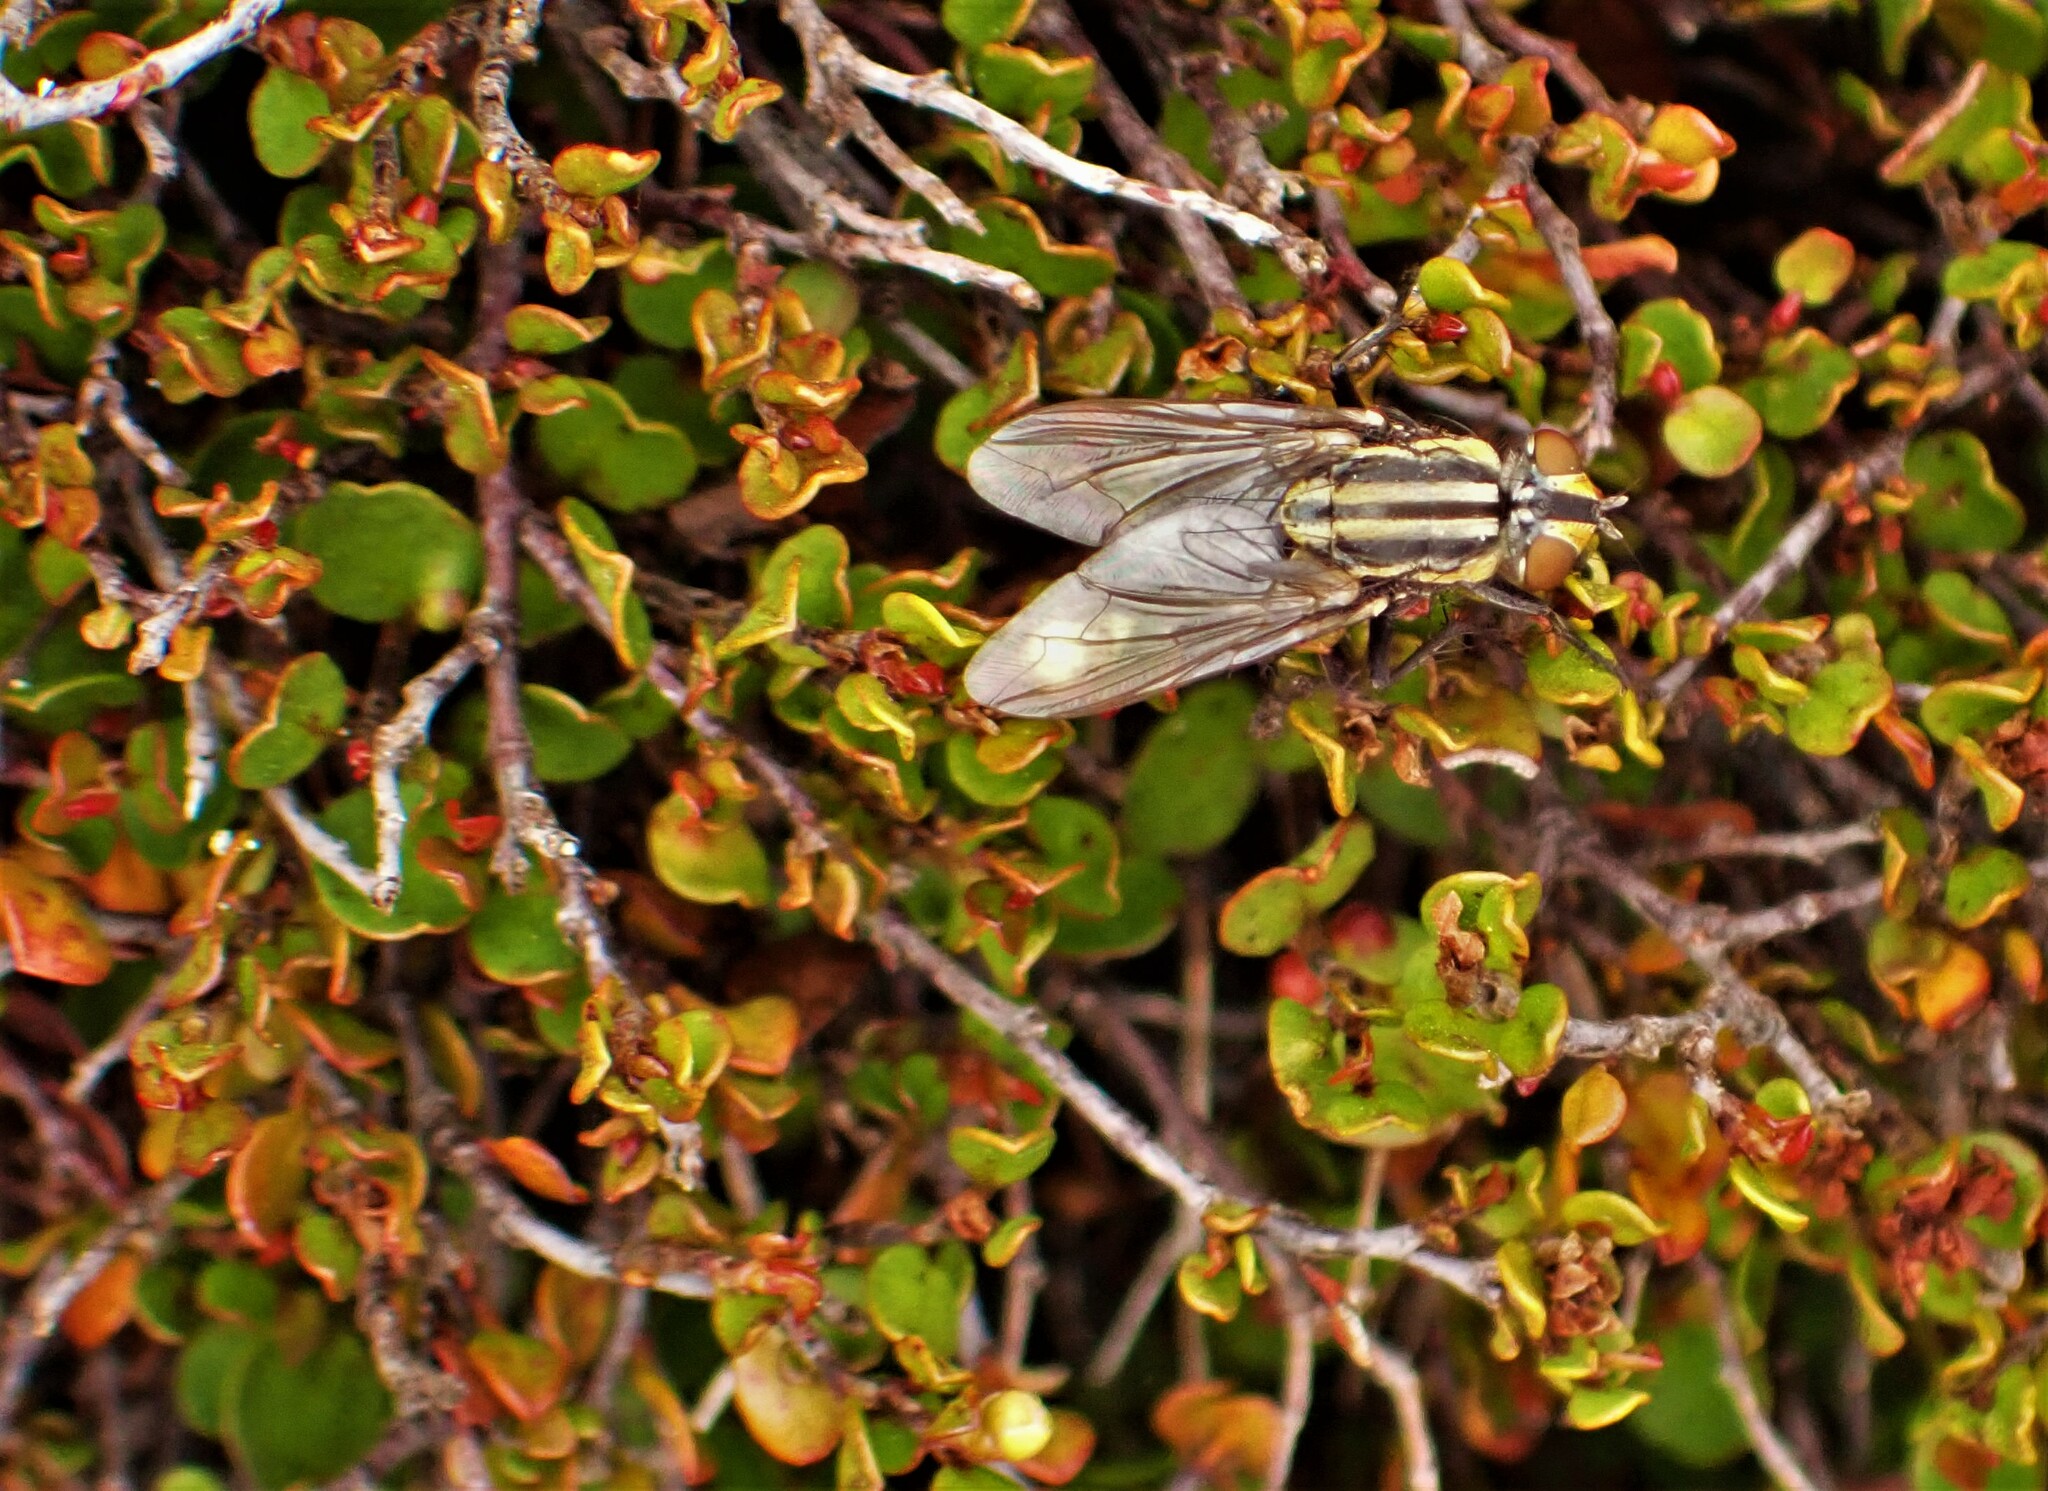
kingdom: Animalia
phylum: Arthropoda
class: Insecta
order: Diptera
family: Sarcophagidae
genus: Oxysarcodexia
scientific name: Oxysarcodexia varia
